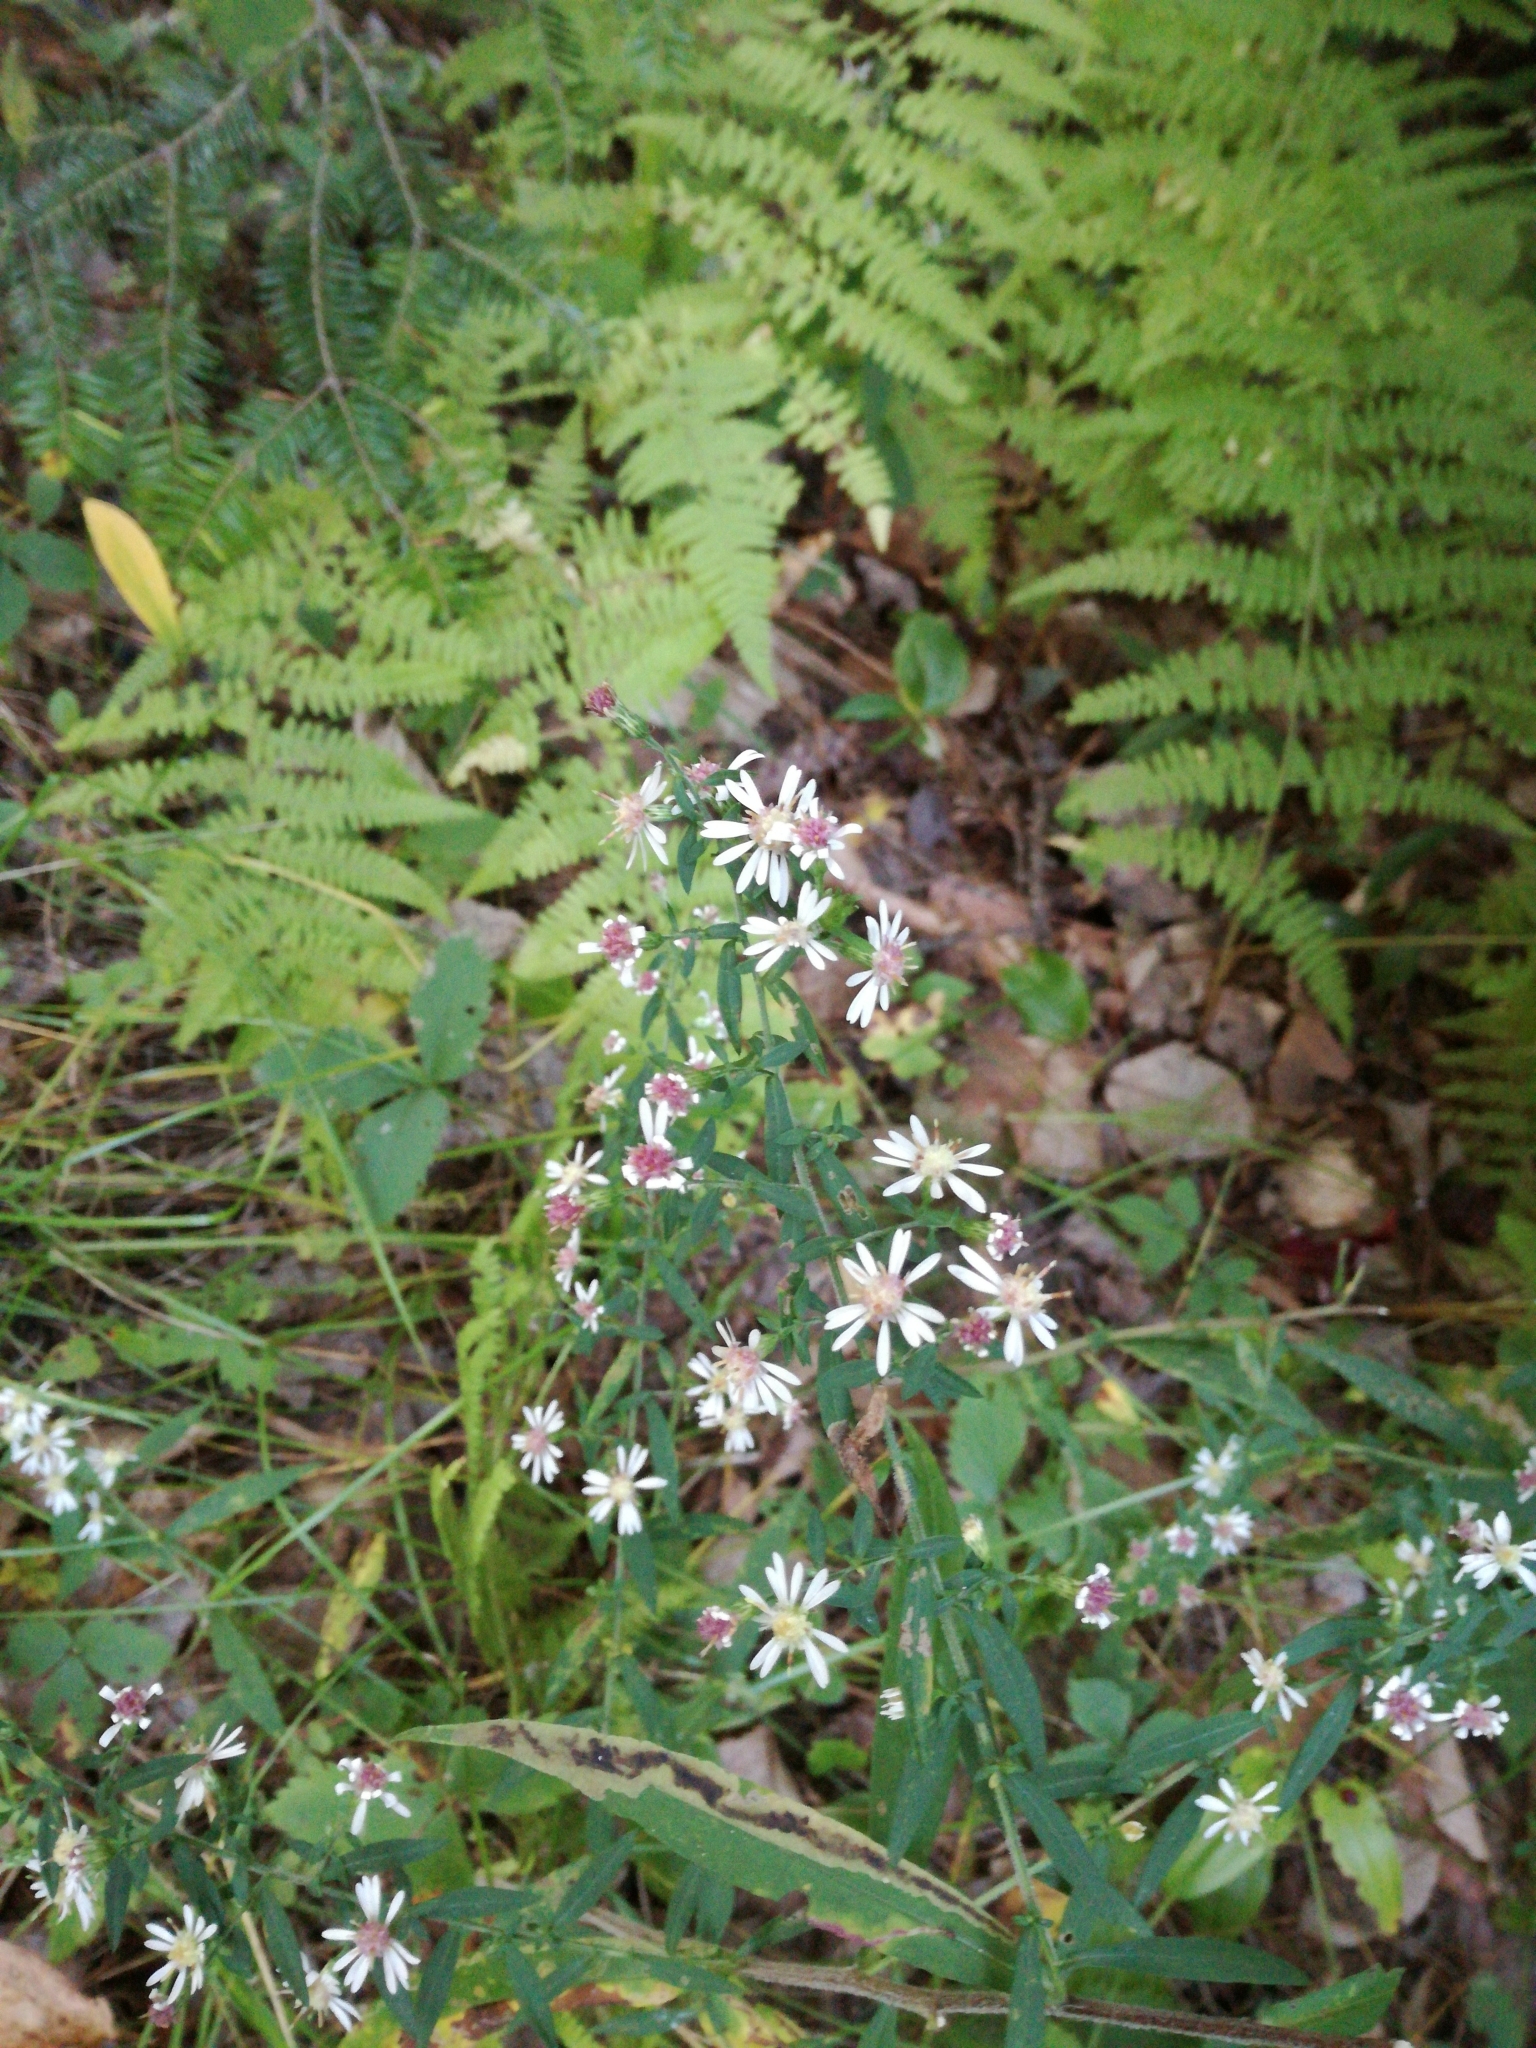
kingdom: Plantae
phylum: Tracheophyta
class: Magnoliopsida
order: Asterales
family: Asteraceae
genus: Symphyotrichum
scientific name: Symphyotrichum lateriflorum
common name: Calico aster
